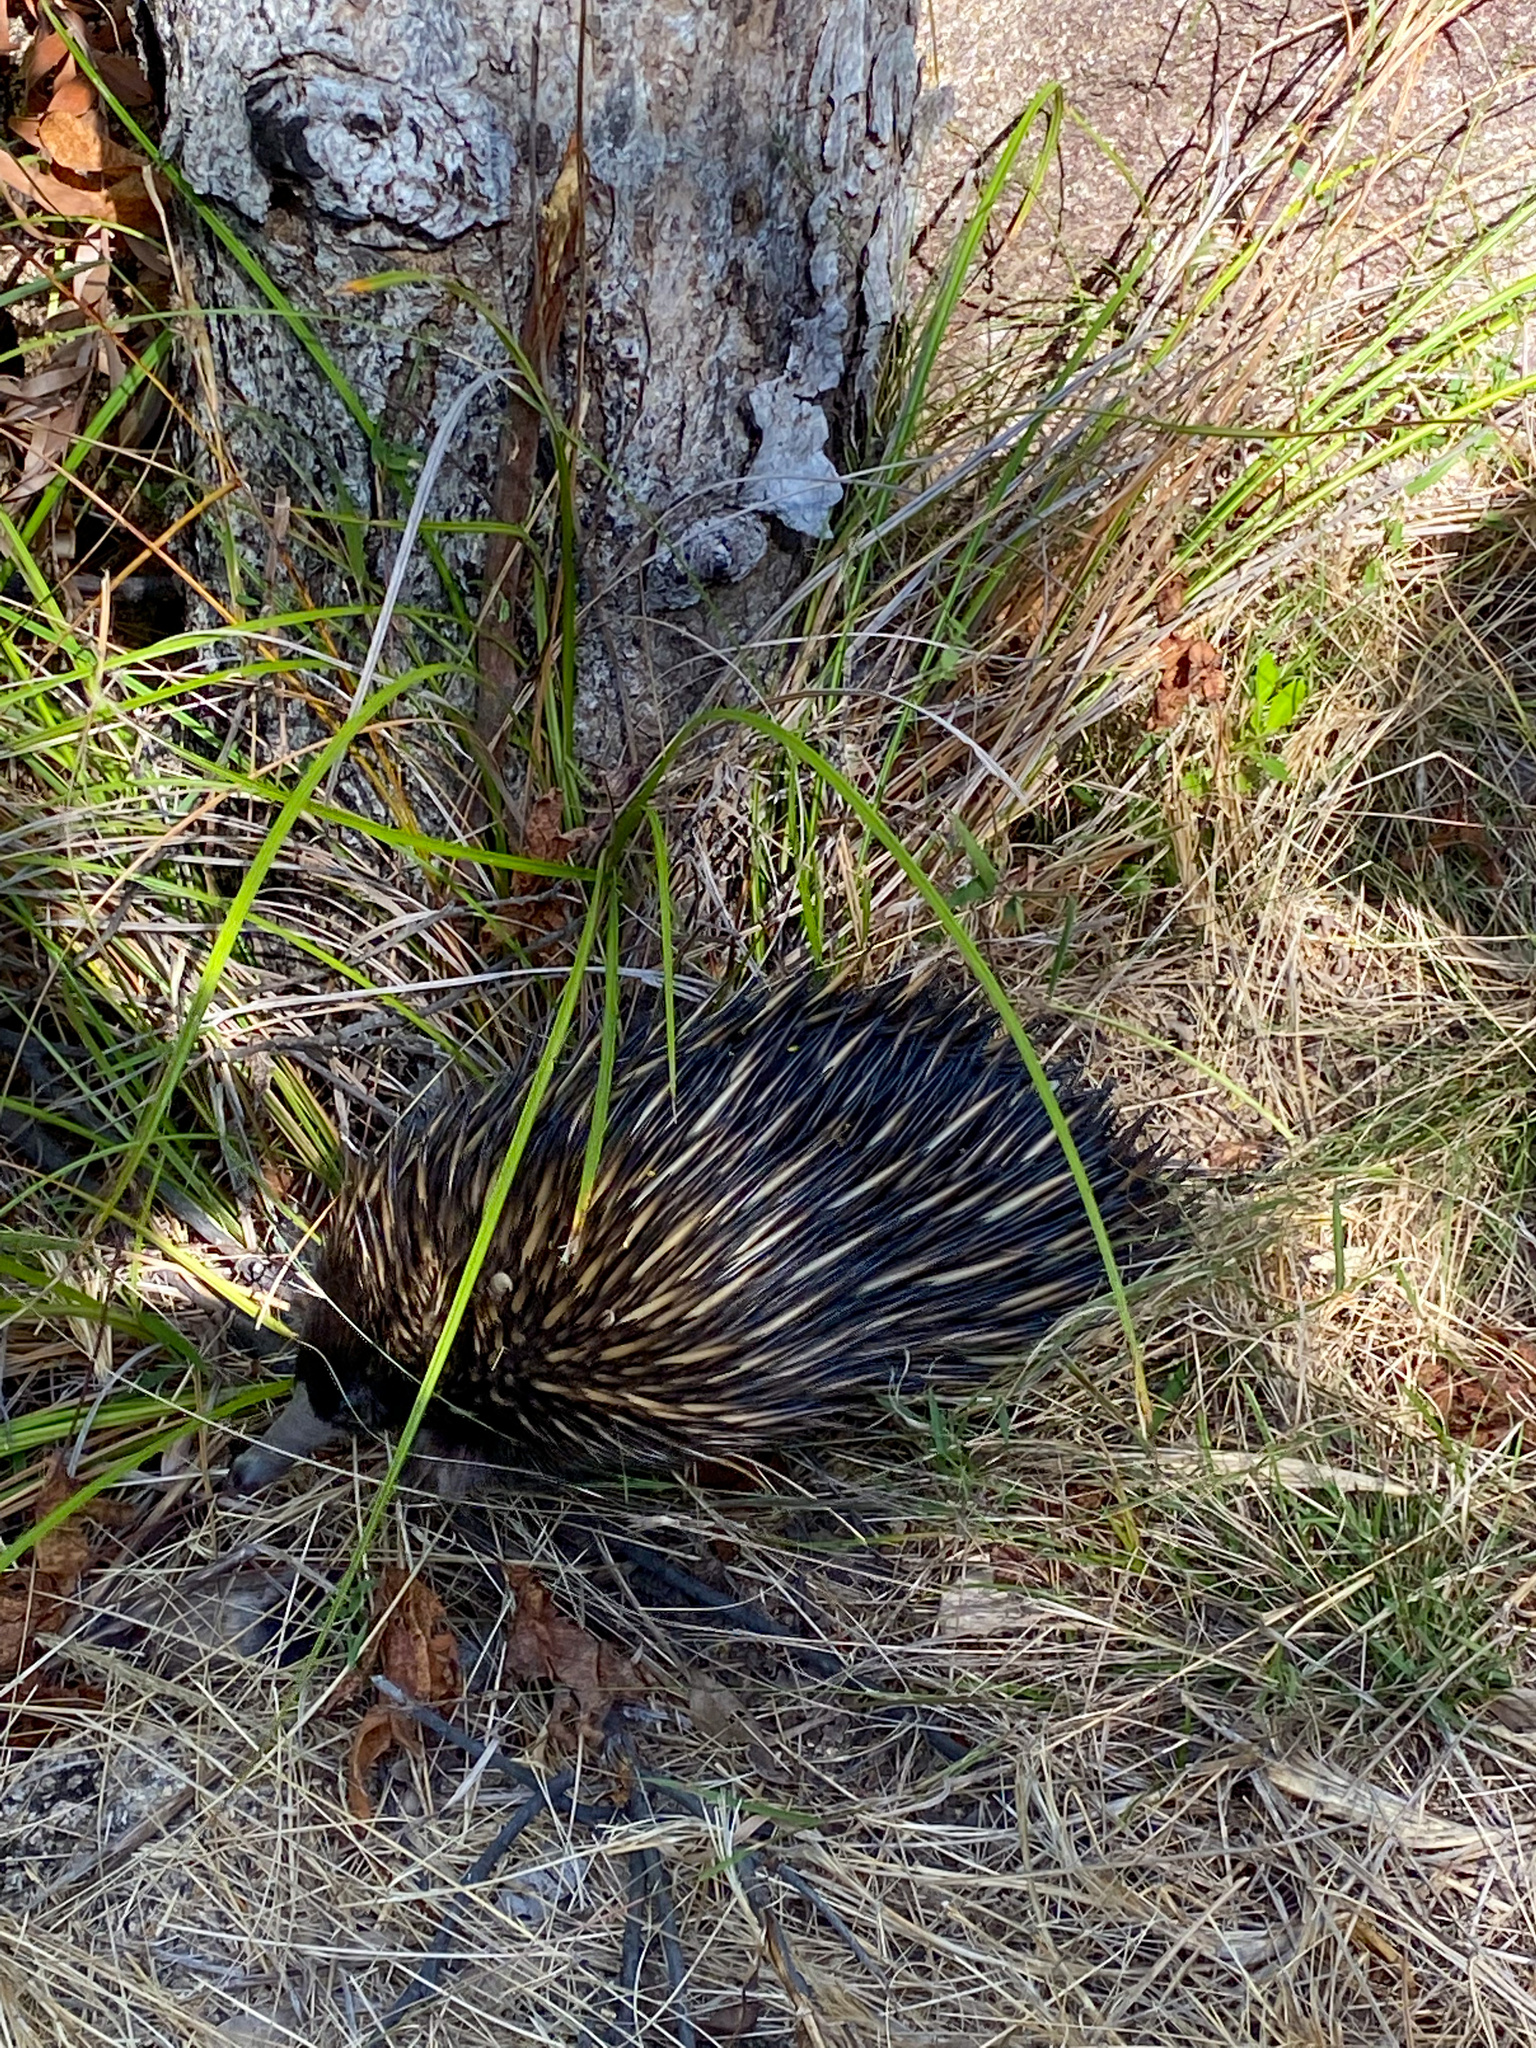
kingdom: Animalia
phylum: Chordata
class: Mammalia
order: Monotremata
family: Tachyglossidae
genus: Tachyglossus
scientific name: Tachyglossus aculeatus
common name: Short-beaked echidna
